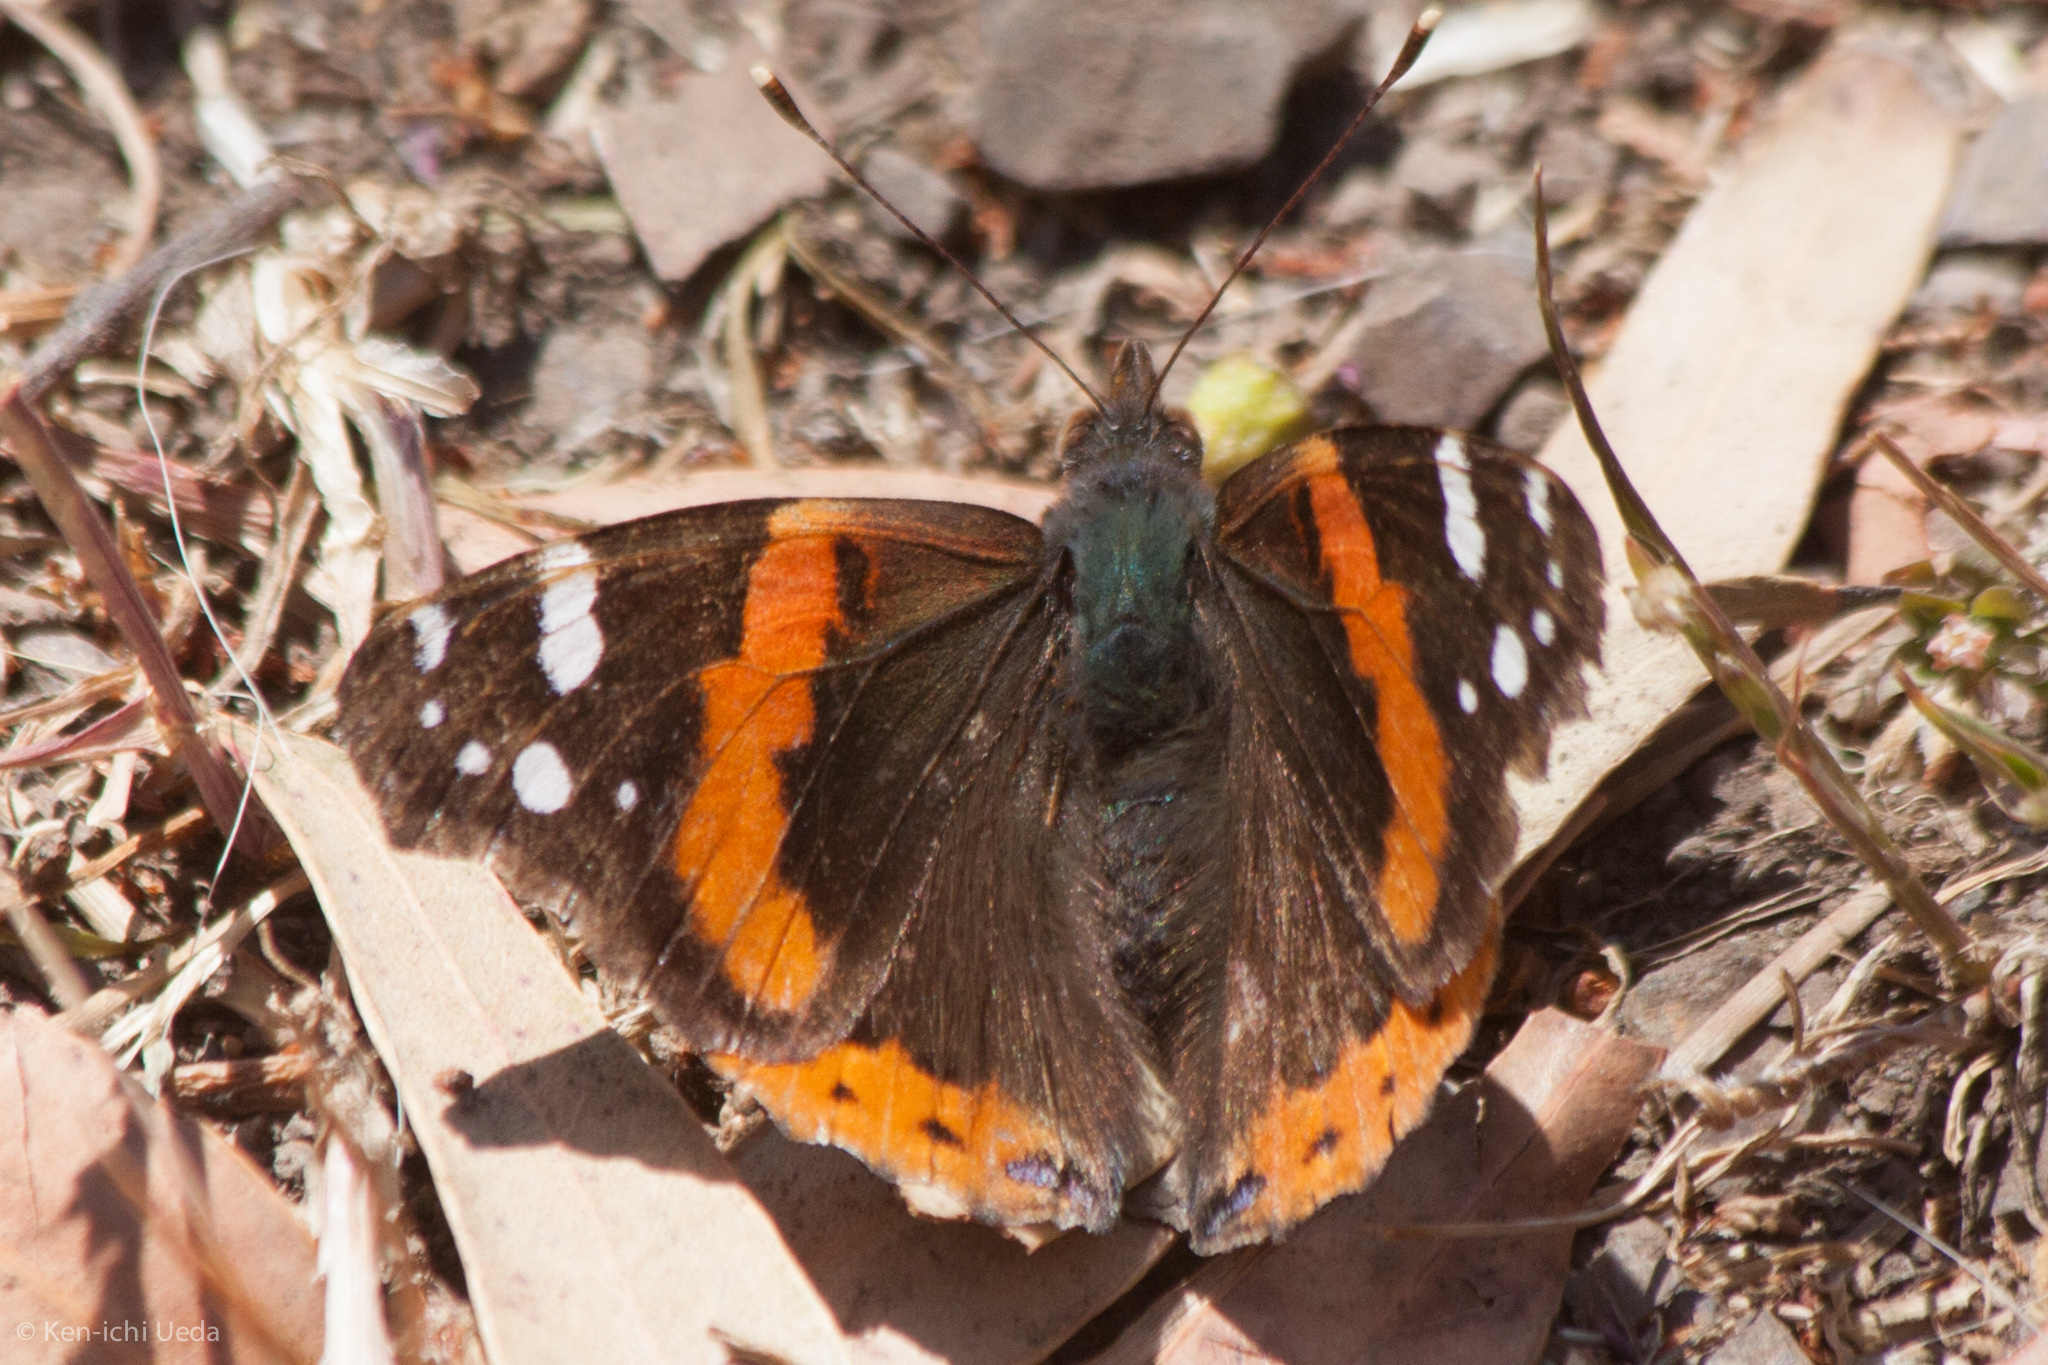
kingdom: Animalia
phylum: Arthropoda
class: Insecta
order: Lepidoptera
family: Nymphalidae
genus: Vanessa
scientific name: Vanessa atalanta
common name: Red admiral
